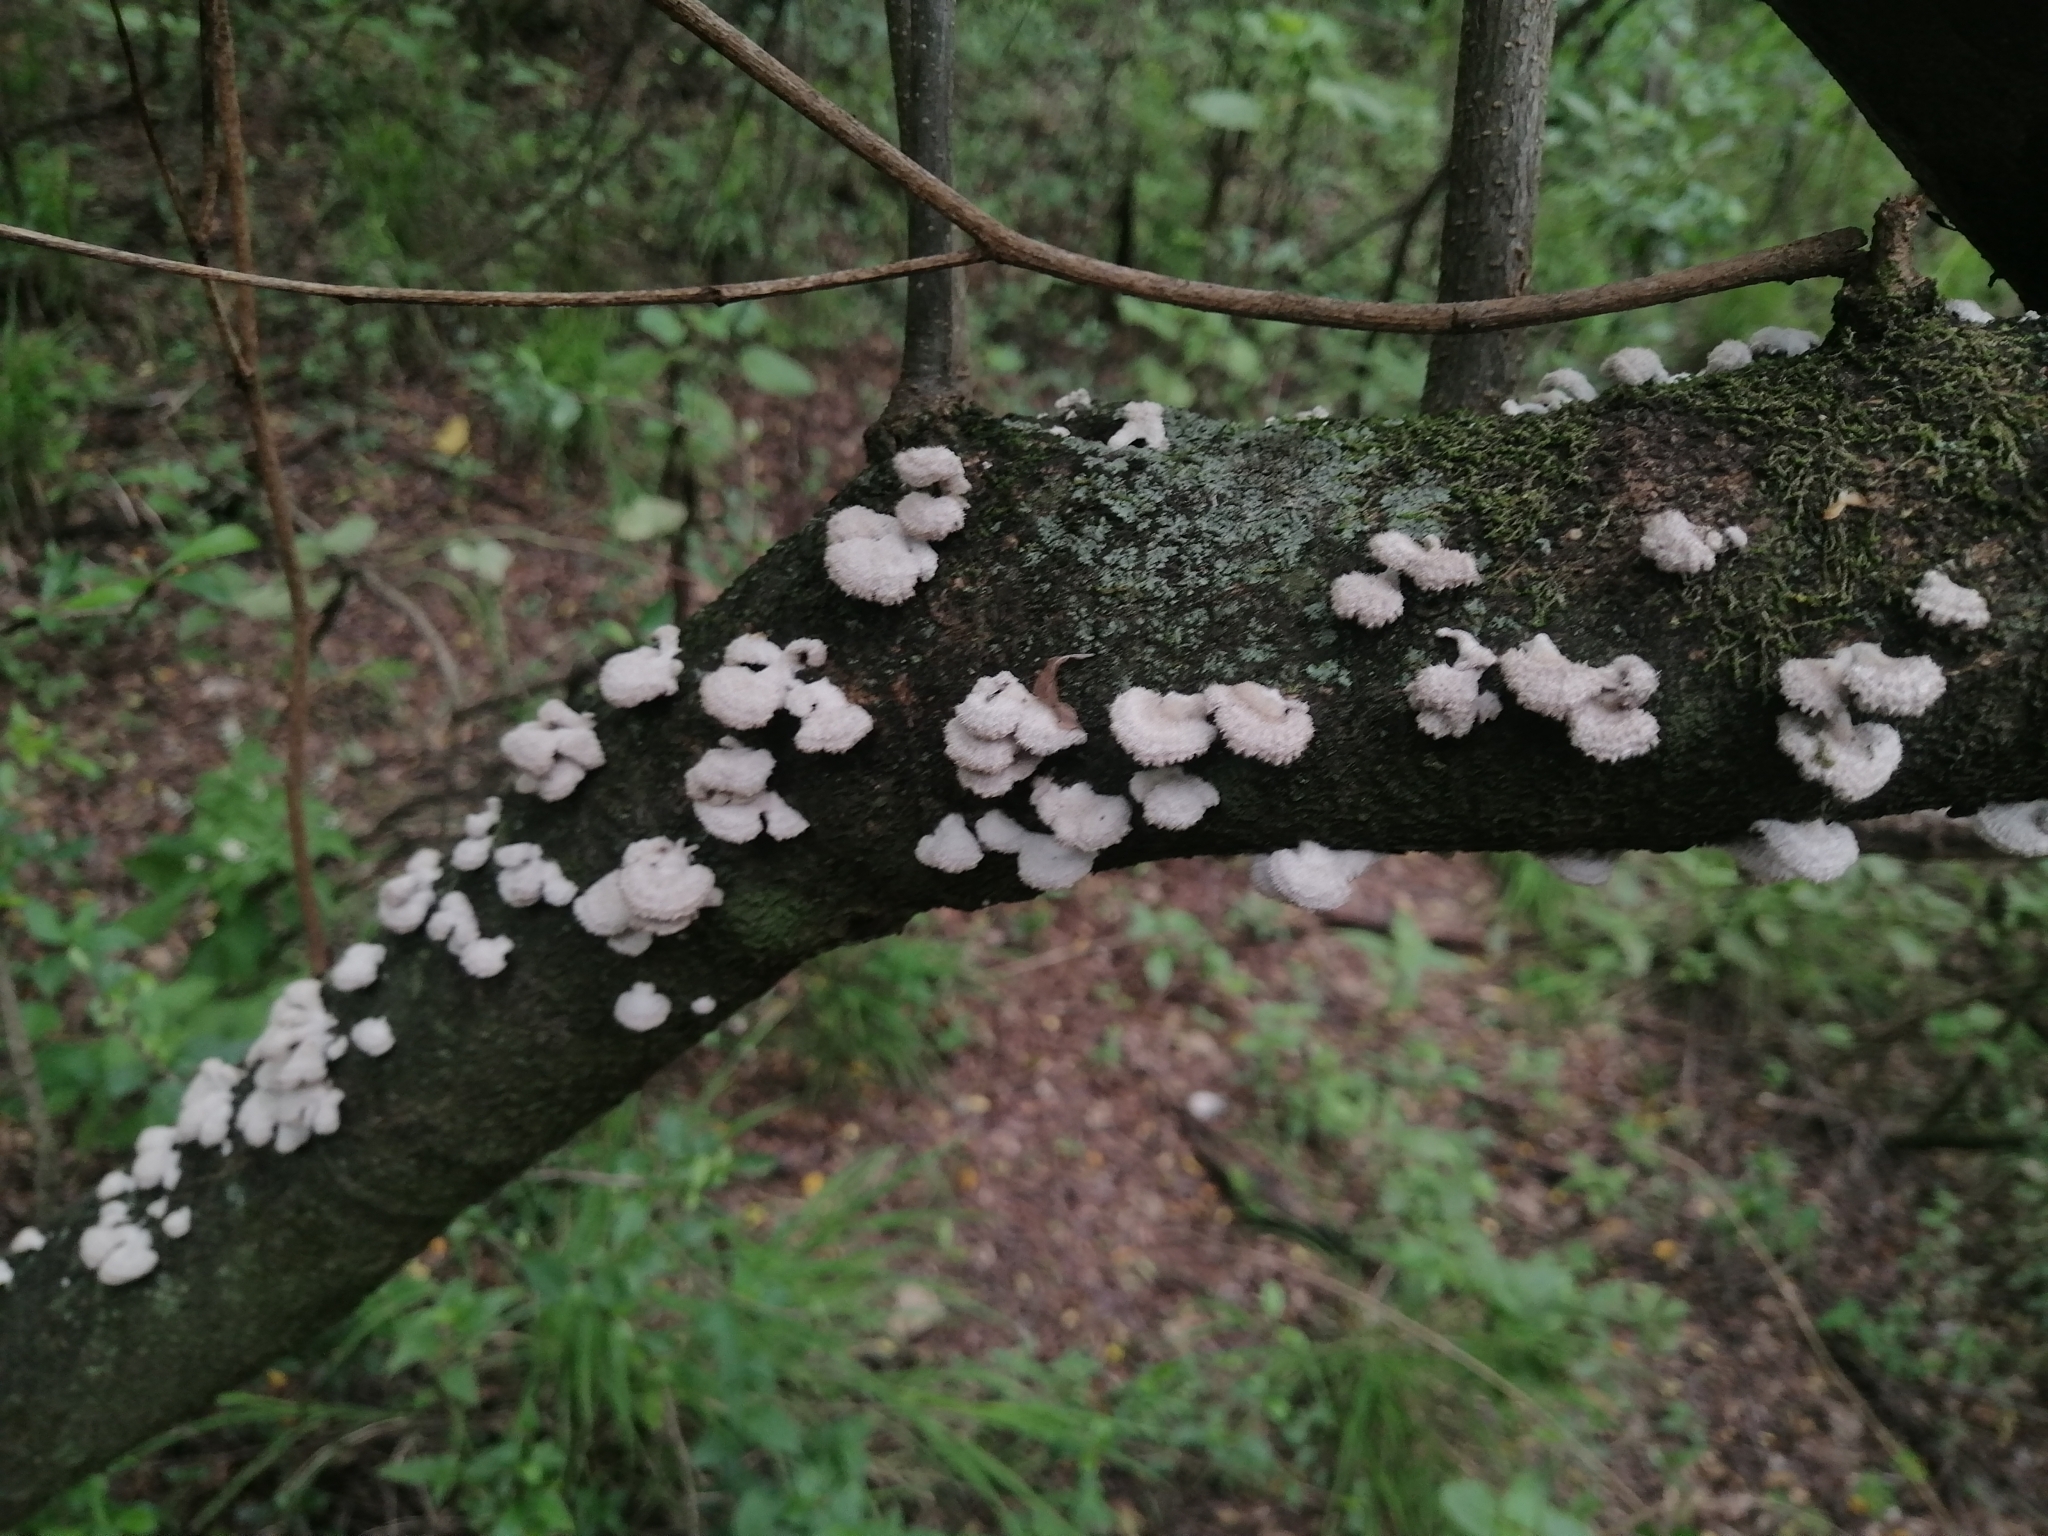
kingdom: Fungi
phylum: Basidiomycota
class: Agaricomycetes
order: Agaricales
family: Schizophyllaceae
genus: Schizophyllum
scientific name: Schizophyllum commune
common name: Common porecrust
